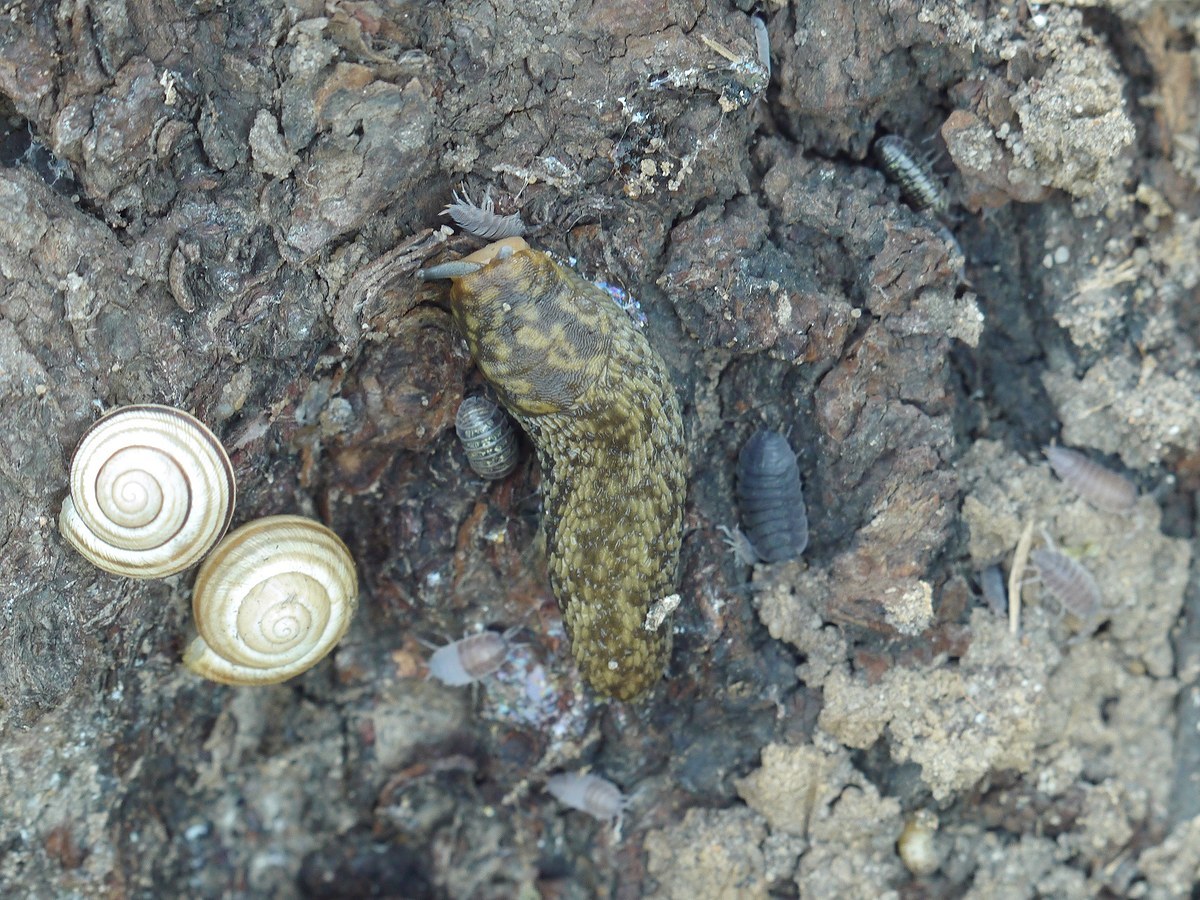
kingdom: Animalia
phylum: Mollusca
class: Gastropoda
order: Stylommatophora
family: Limacidae
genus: Limacus
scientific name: Limacus
